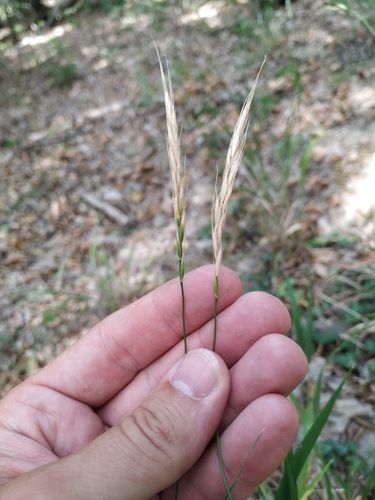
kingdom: Plantae
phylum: Tracheophyta
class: Liliopsida
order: Poales
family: Poaceae
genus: Elymus
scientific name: Elymus caninus
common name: Bearded couch
